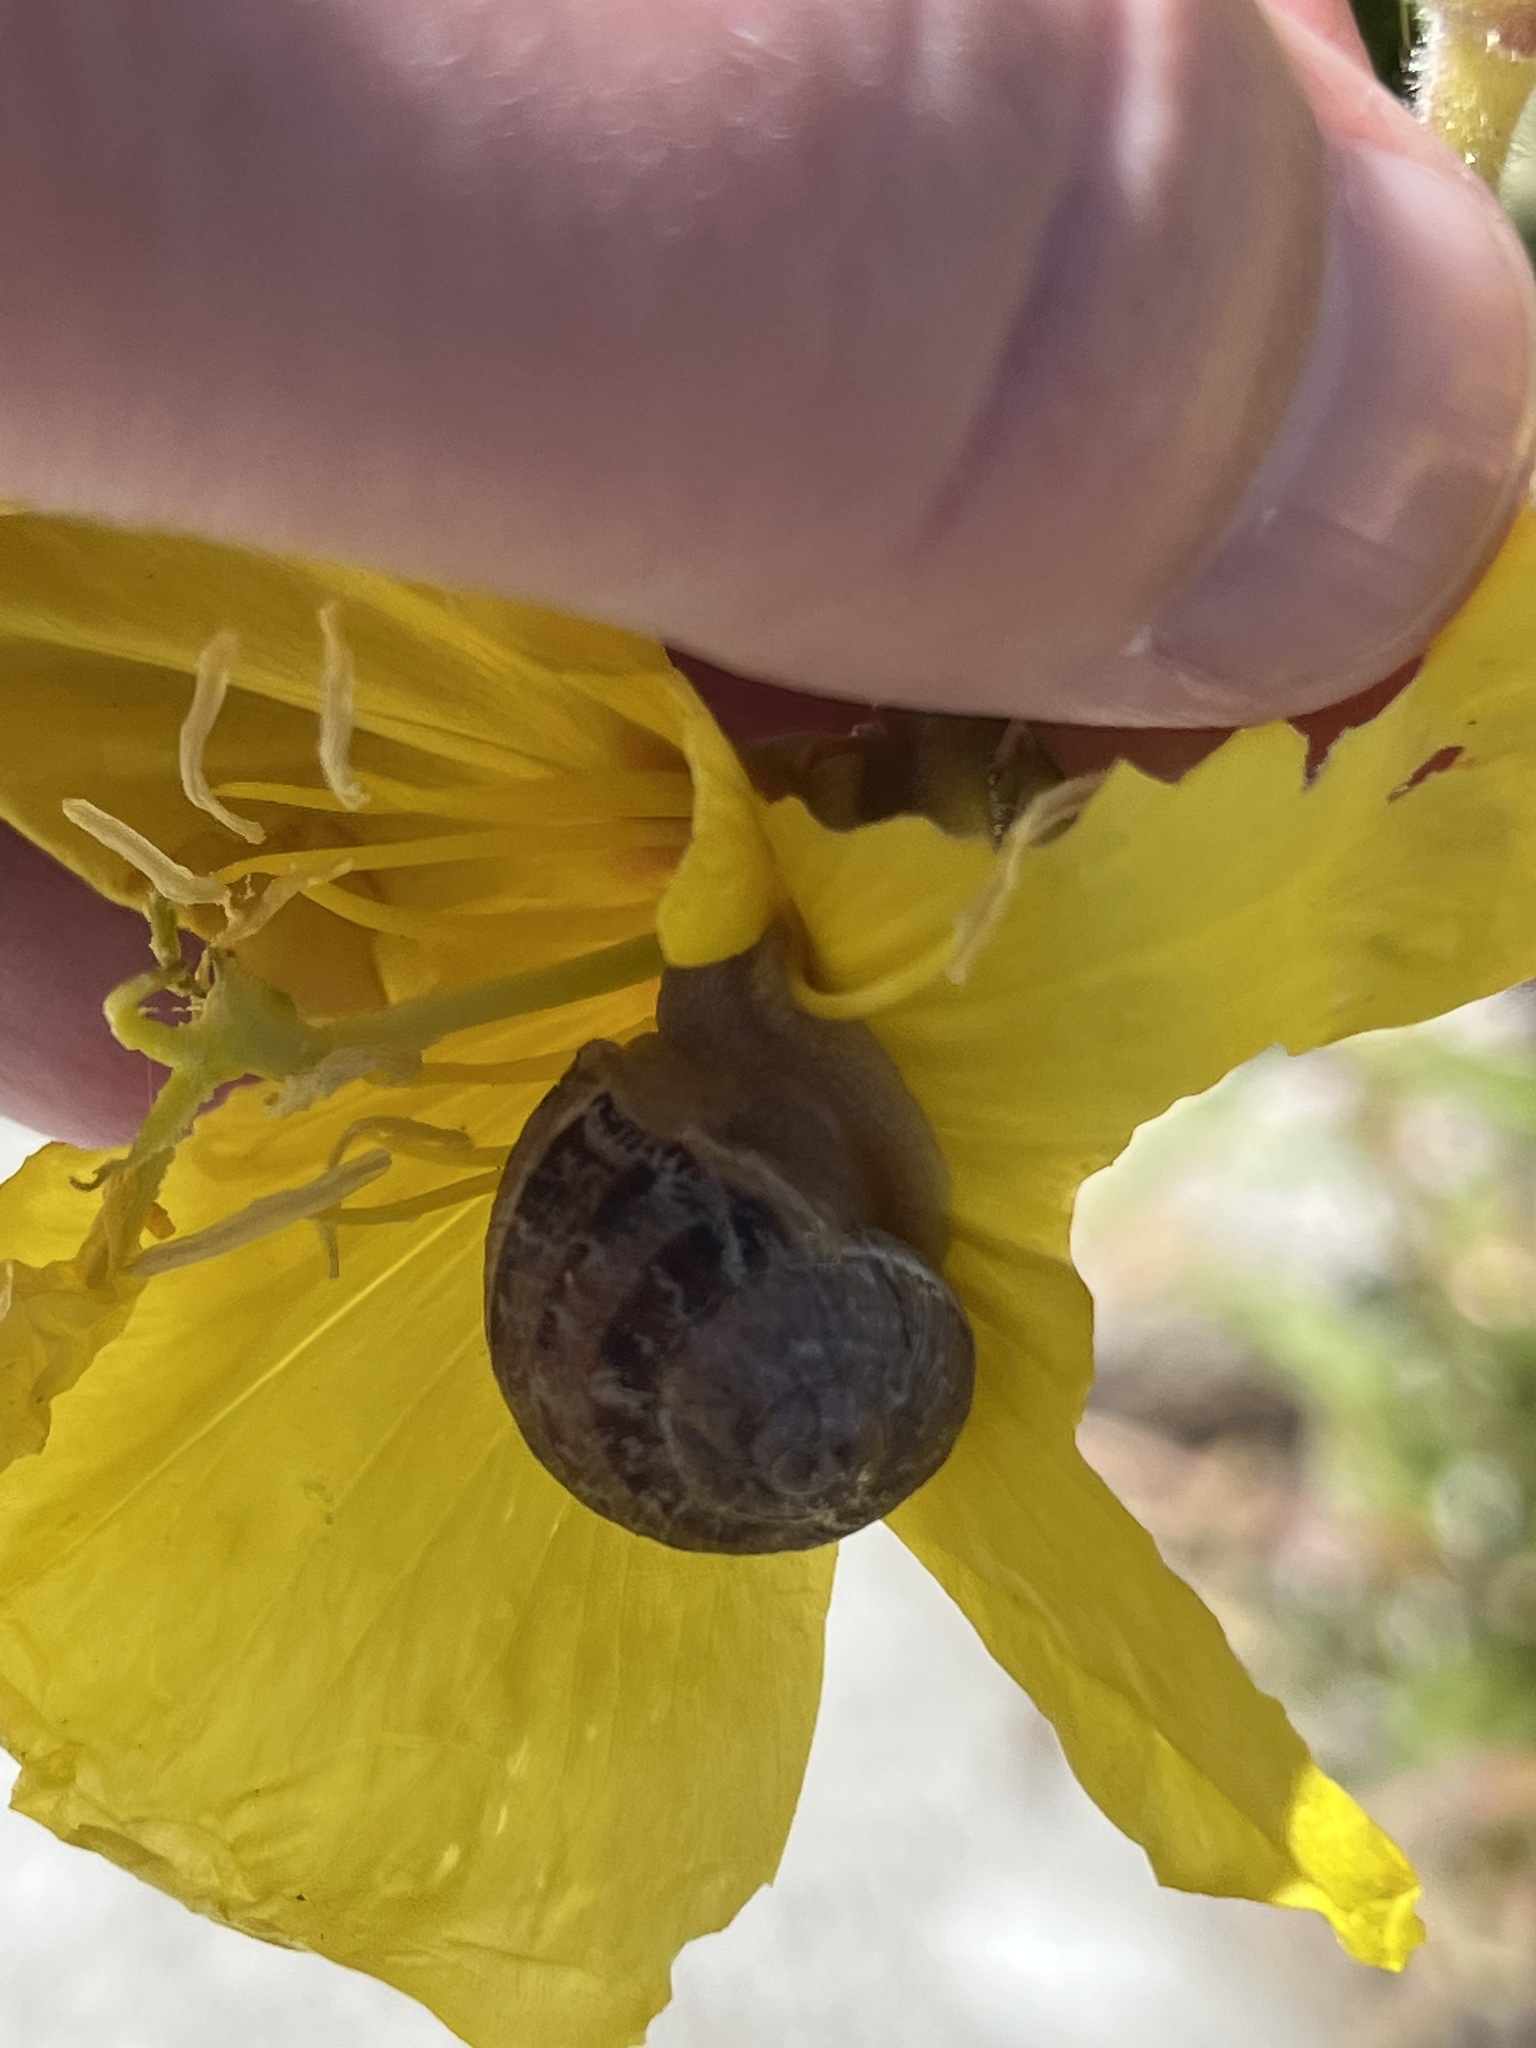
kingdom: Animalia
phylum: Mollusca
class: Gastropoda
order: Stylommatophora
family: Helicidae
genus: Cornu
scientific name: Cornu aspersum
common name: Brown garden snail
